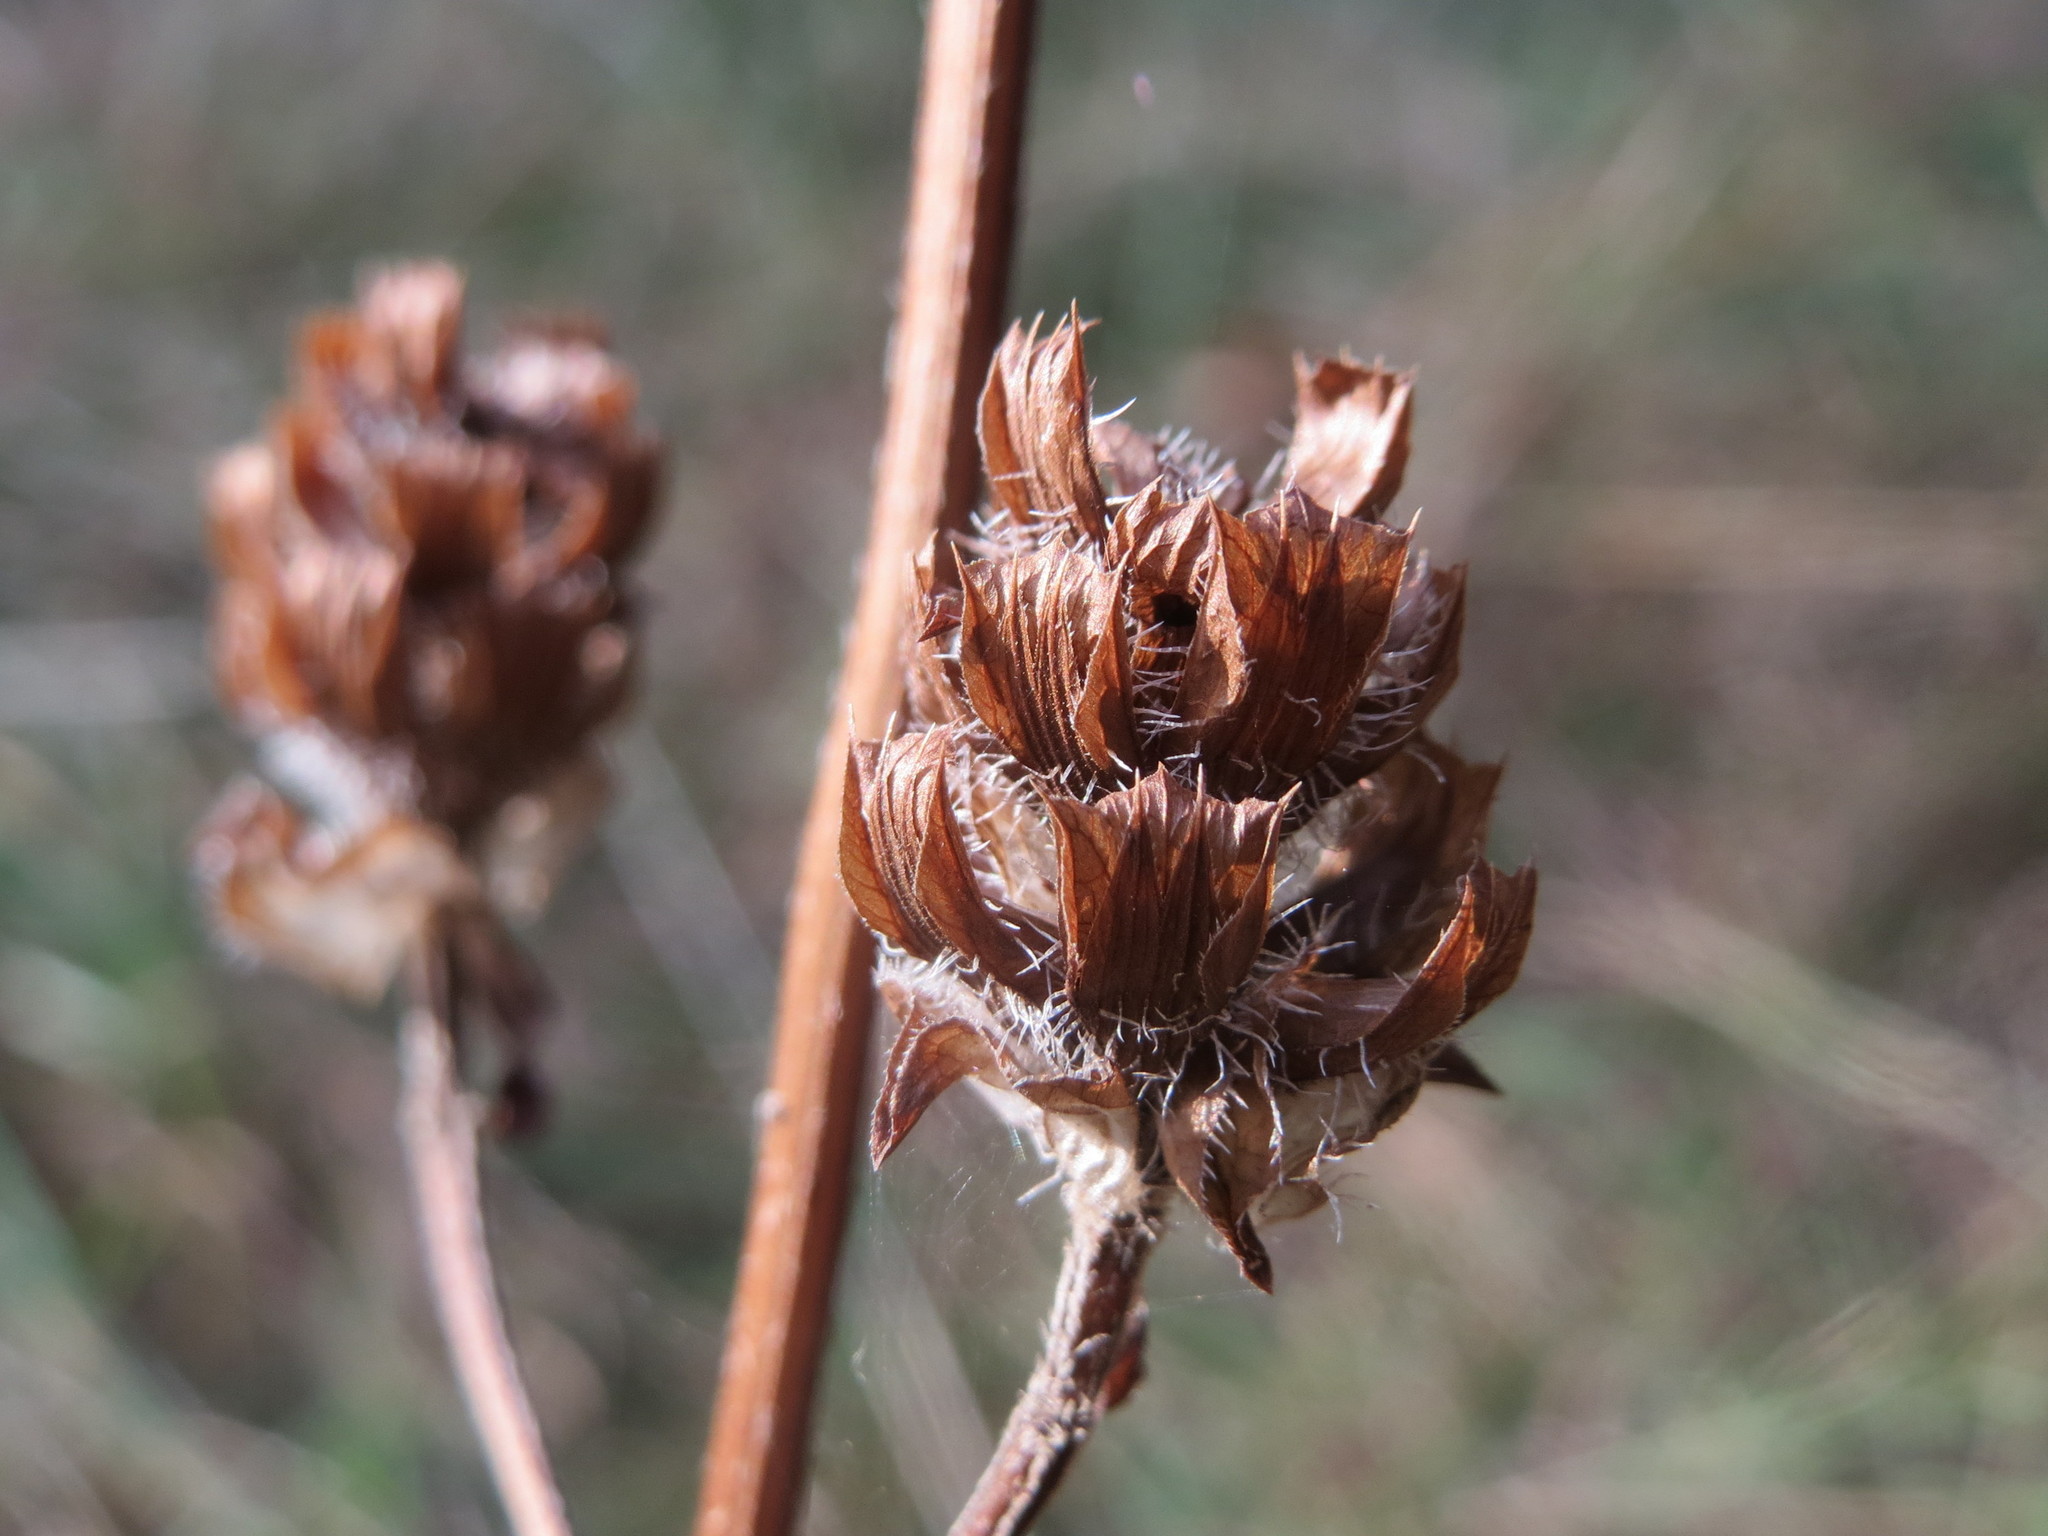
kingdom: Plantae
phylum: Tracheophyta
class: Magnoliopsida
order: Lamiales
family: Lamiaceae
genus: Prunella
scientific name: Prunella vulgaris
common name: Heal-all
